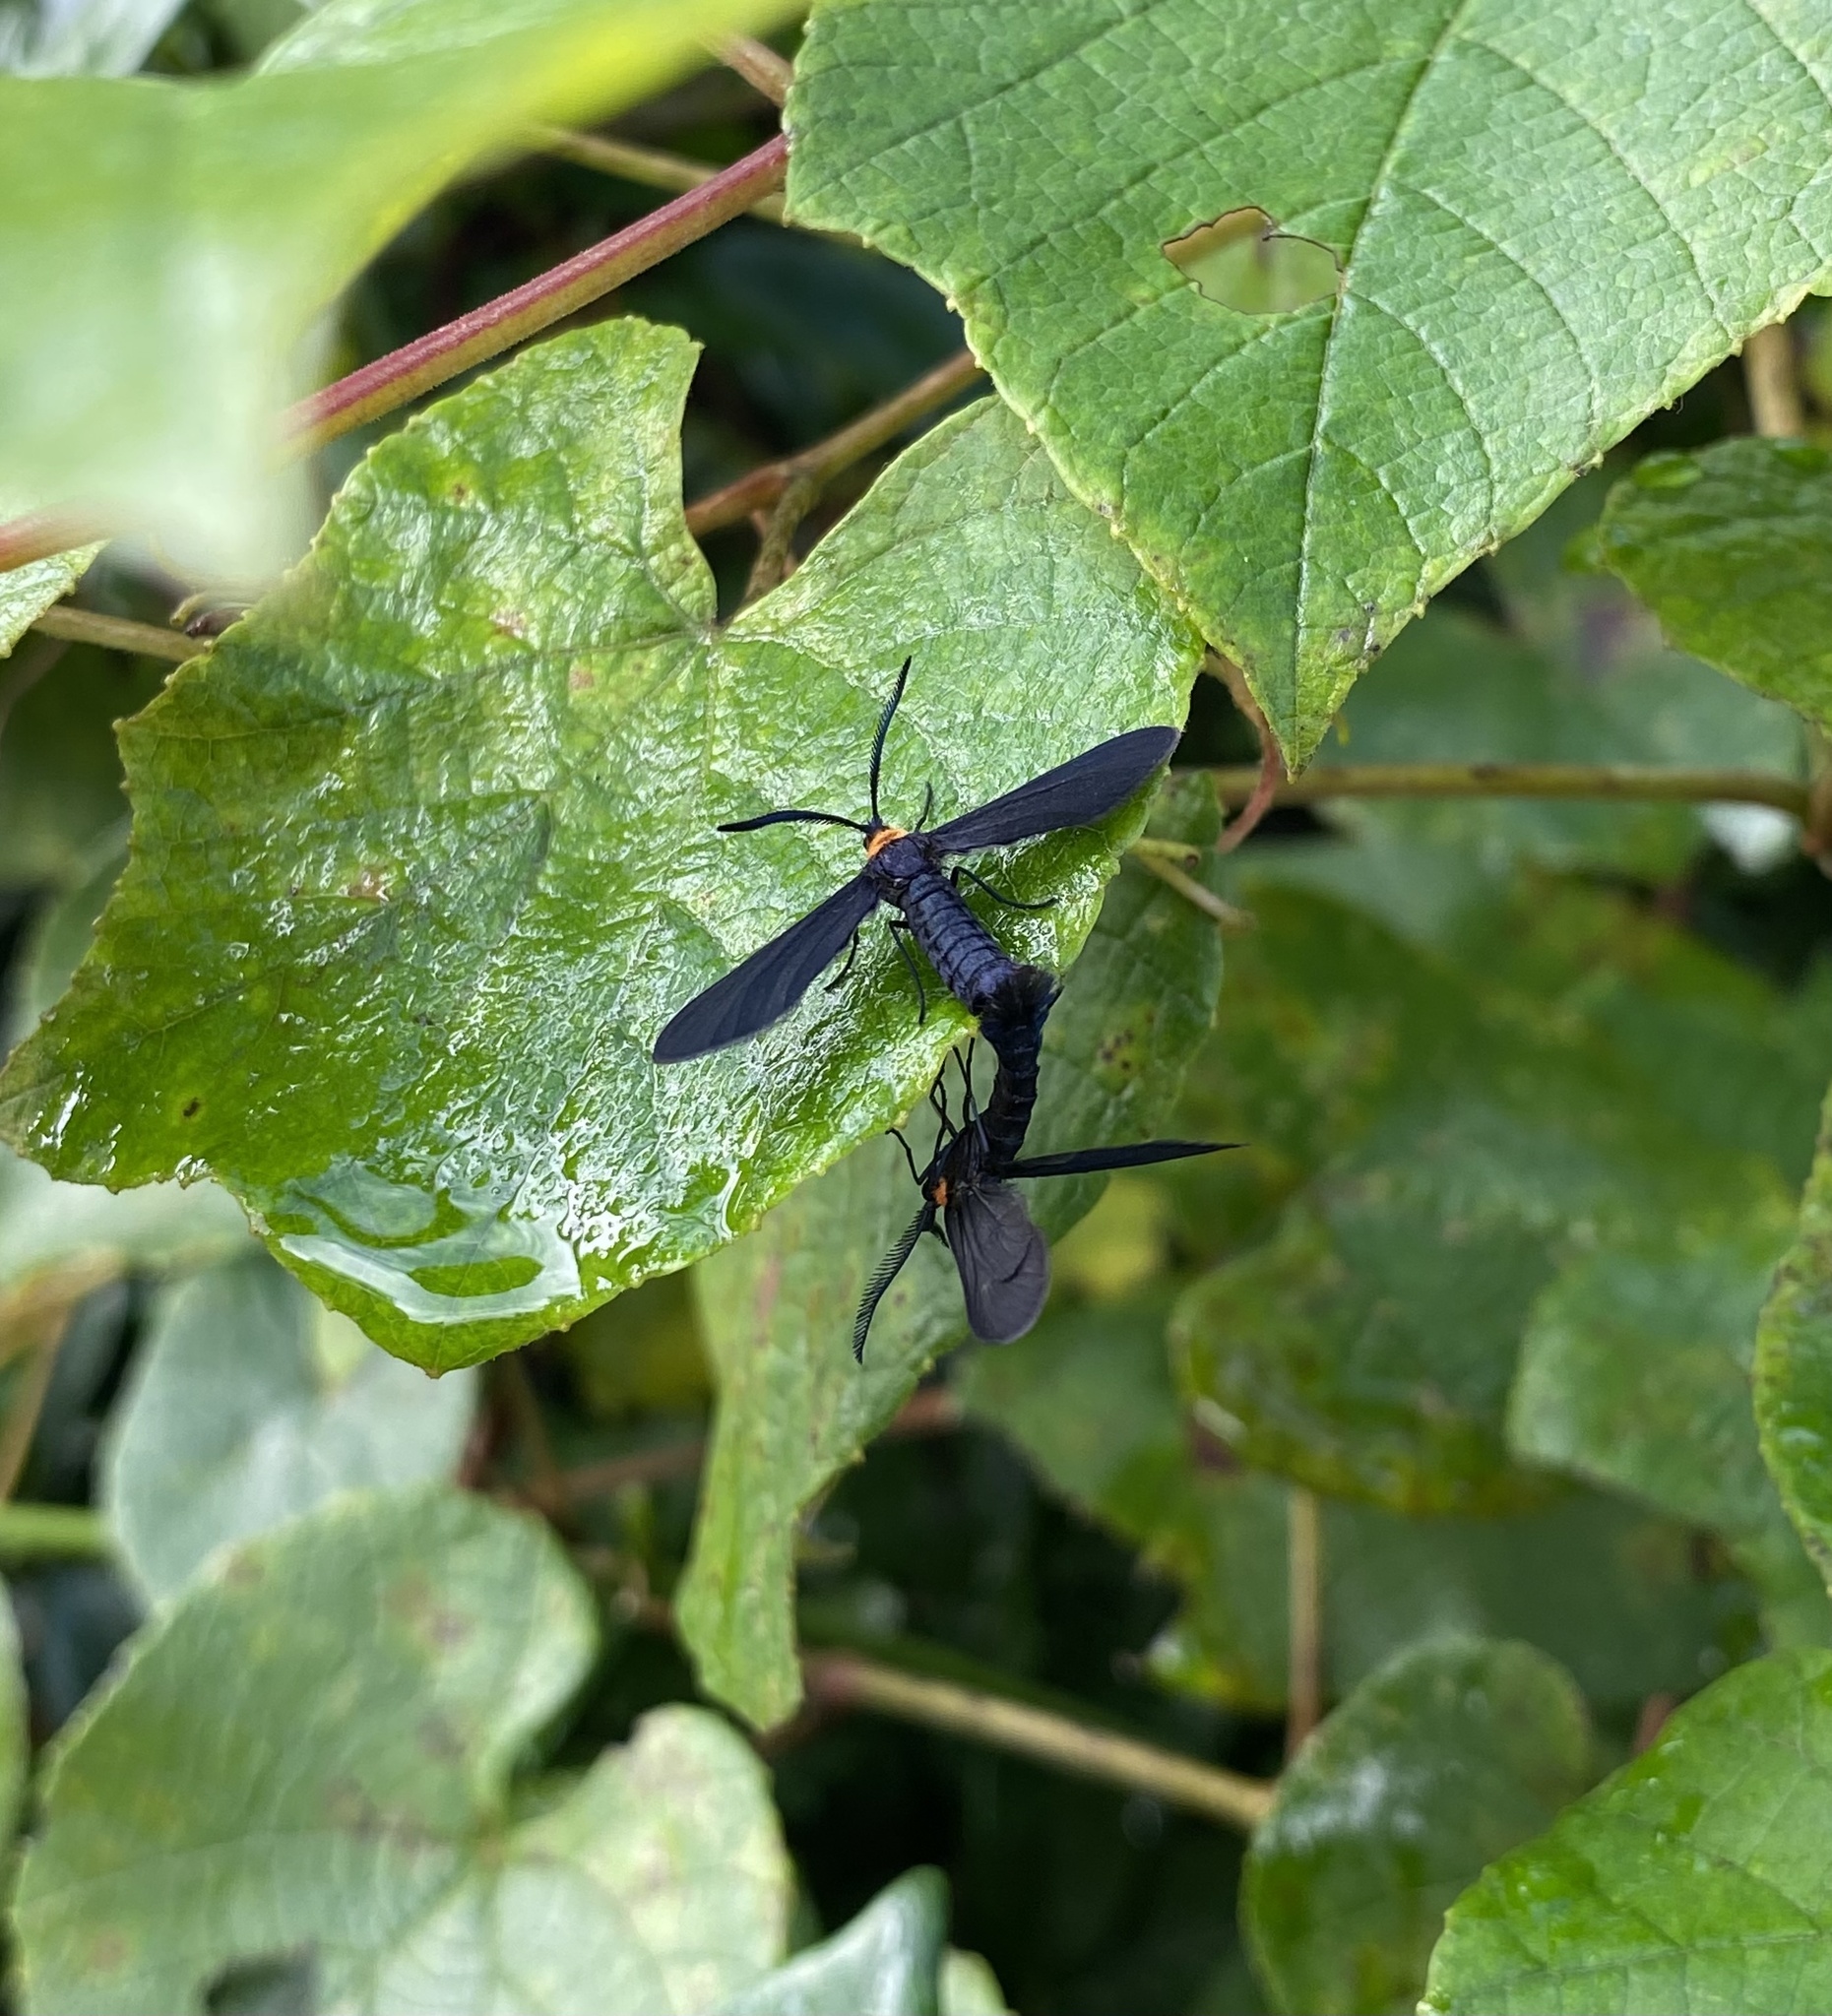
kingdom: Animalia
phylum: Arthropoda
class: Insecta
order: Lepidoptera
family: Zygaenidae
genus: Harrisina
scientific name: Harrisina americana
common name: Grapeleaf skeletonizer moth
